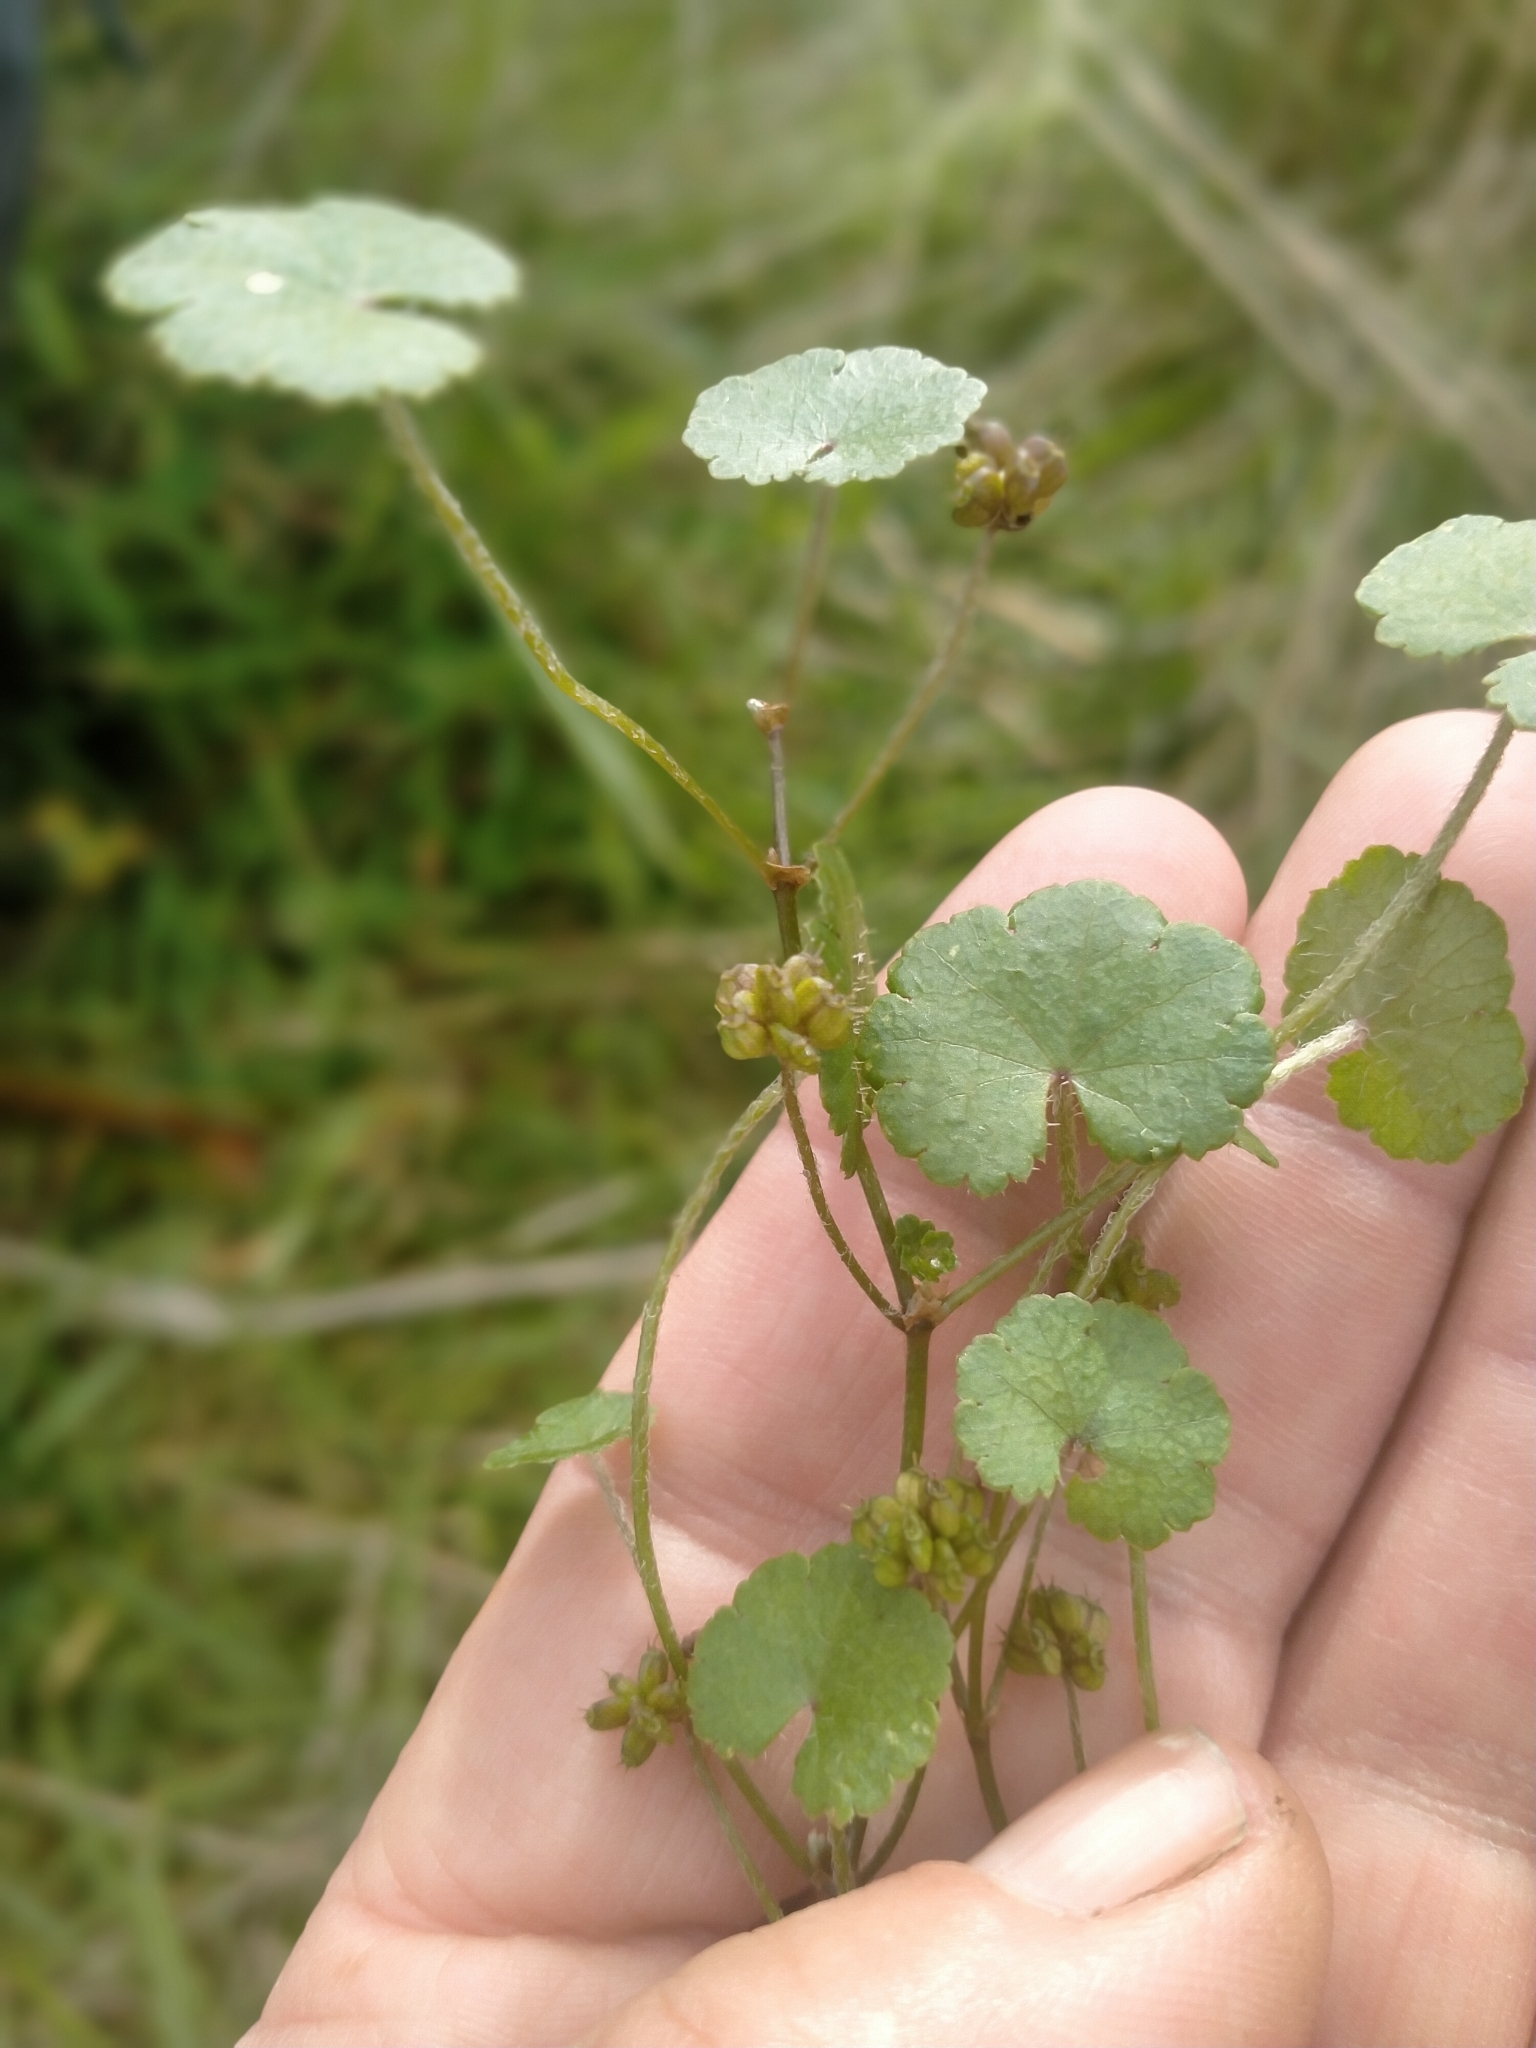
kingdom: Plantae
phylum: Tracheophyta
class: Magnoliopsida
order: Apiales
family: Araliaceae
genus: Hydrocotyle
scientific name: Hydrocotyle robusta
